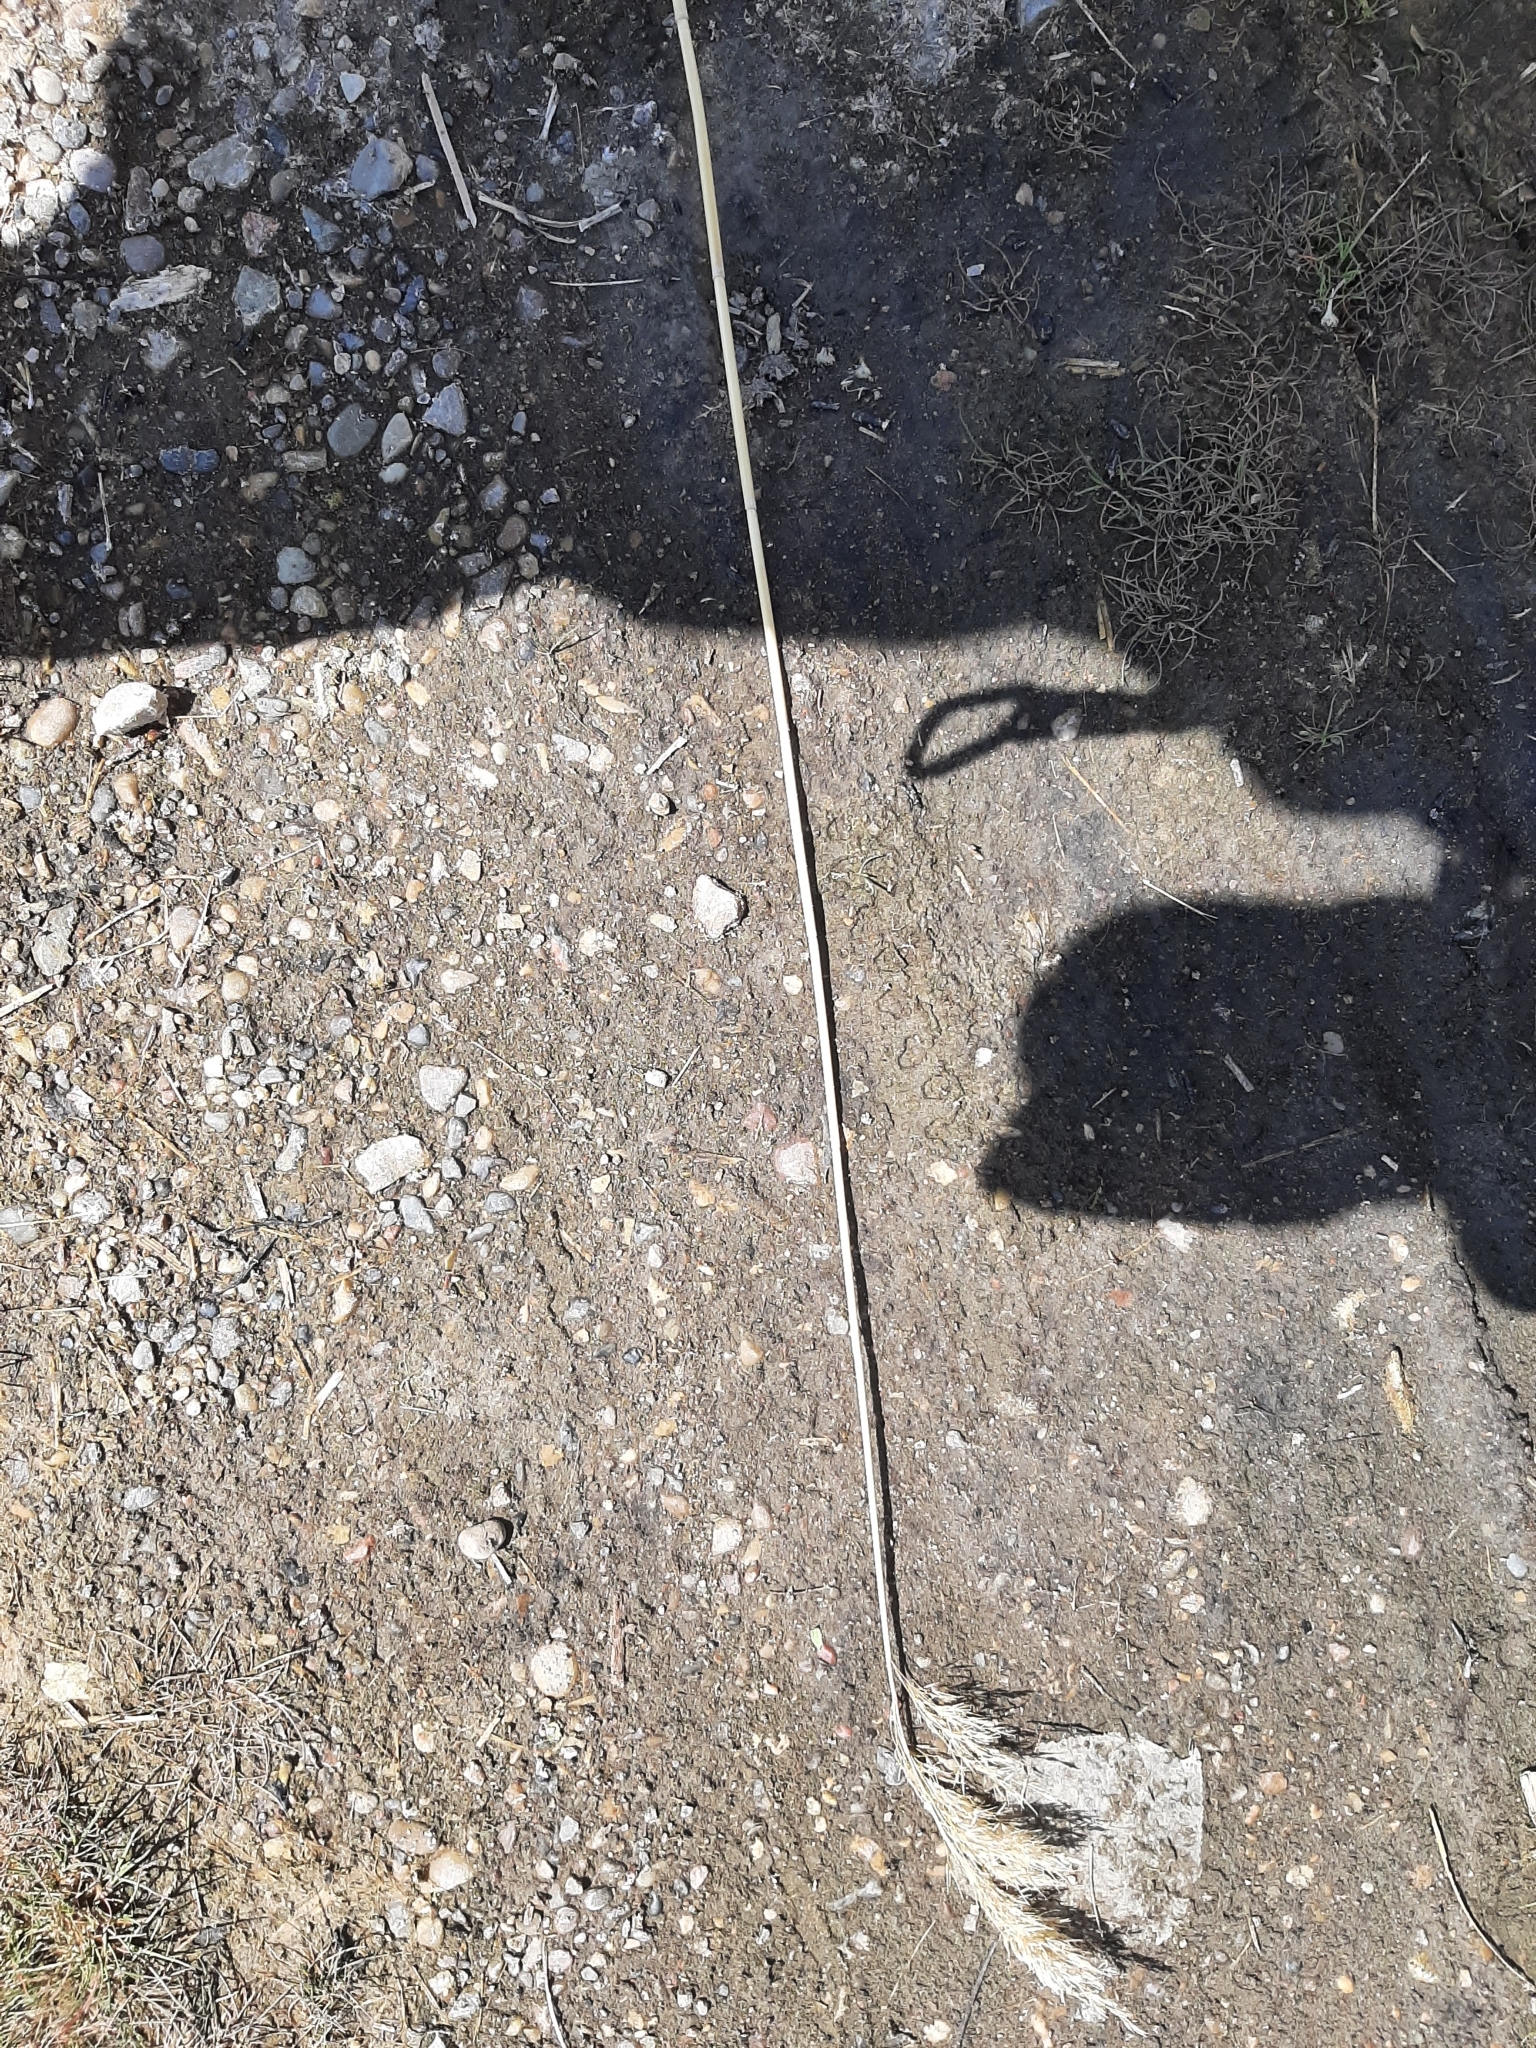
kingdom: Plantae
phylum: Tracheophyta
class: Liliopsida
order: Poales
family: Poaceae
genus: Phragmites
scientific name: Phragmites australis
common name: Common reed
